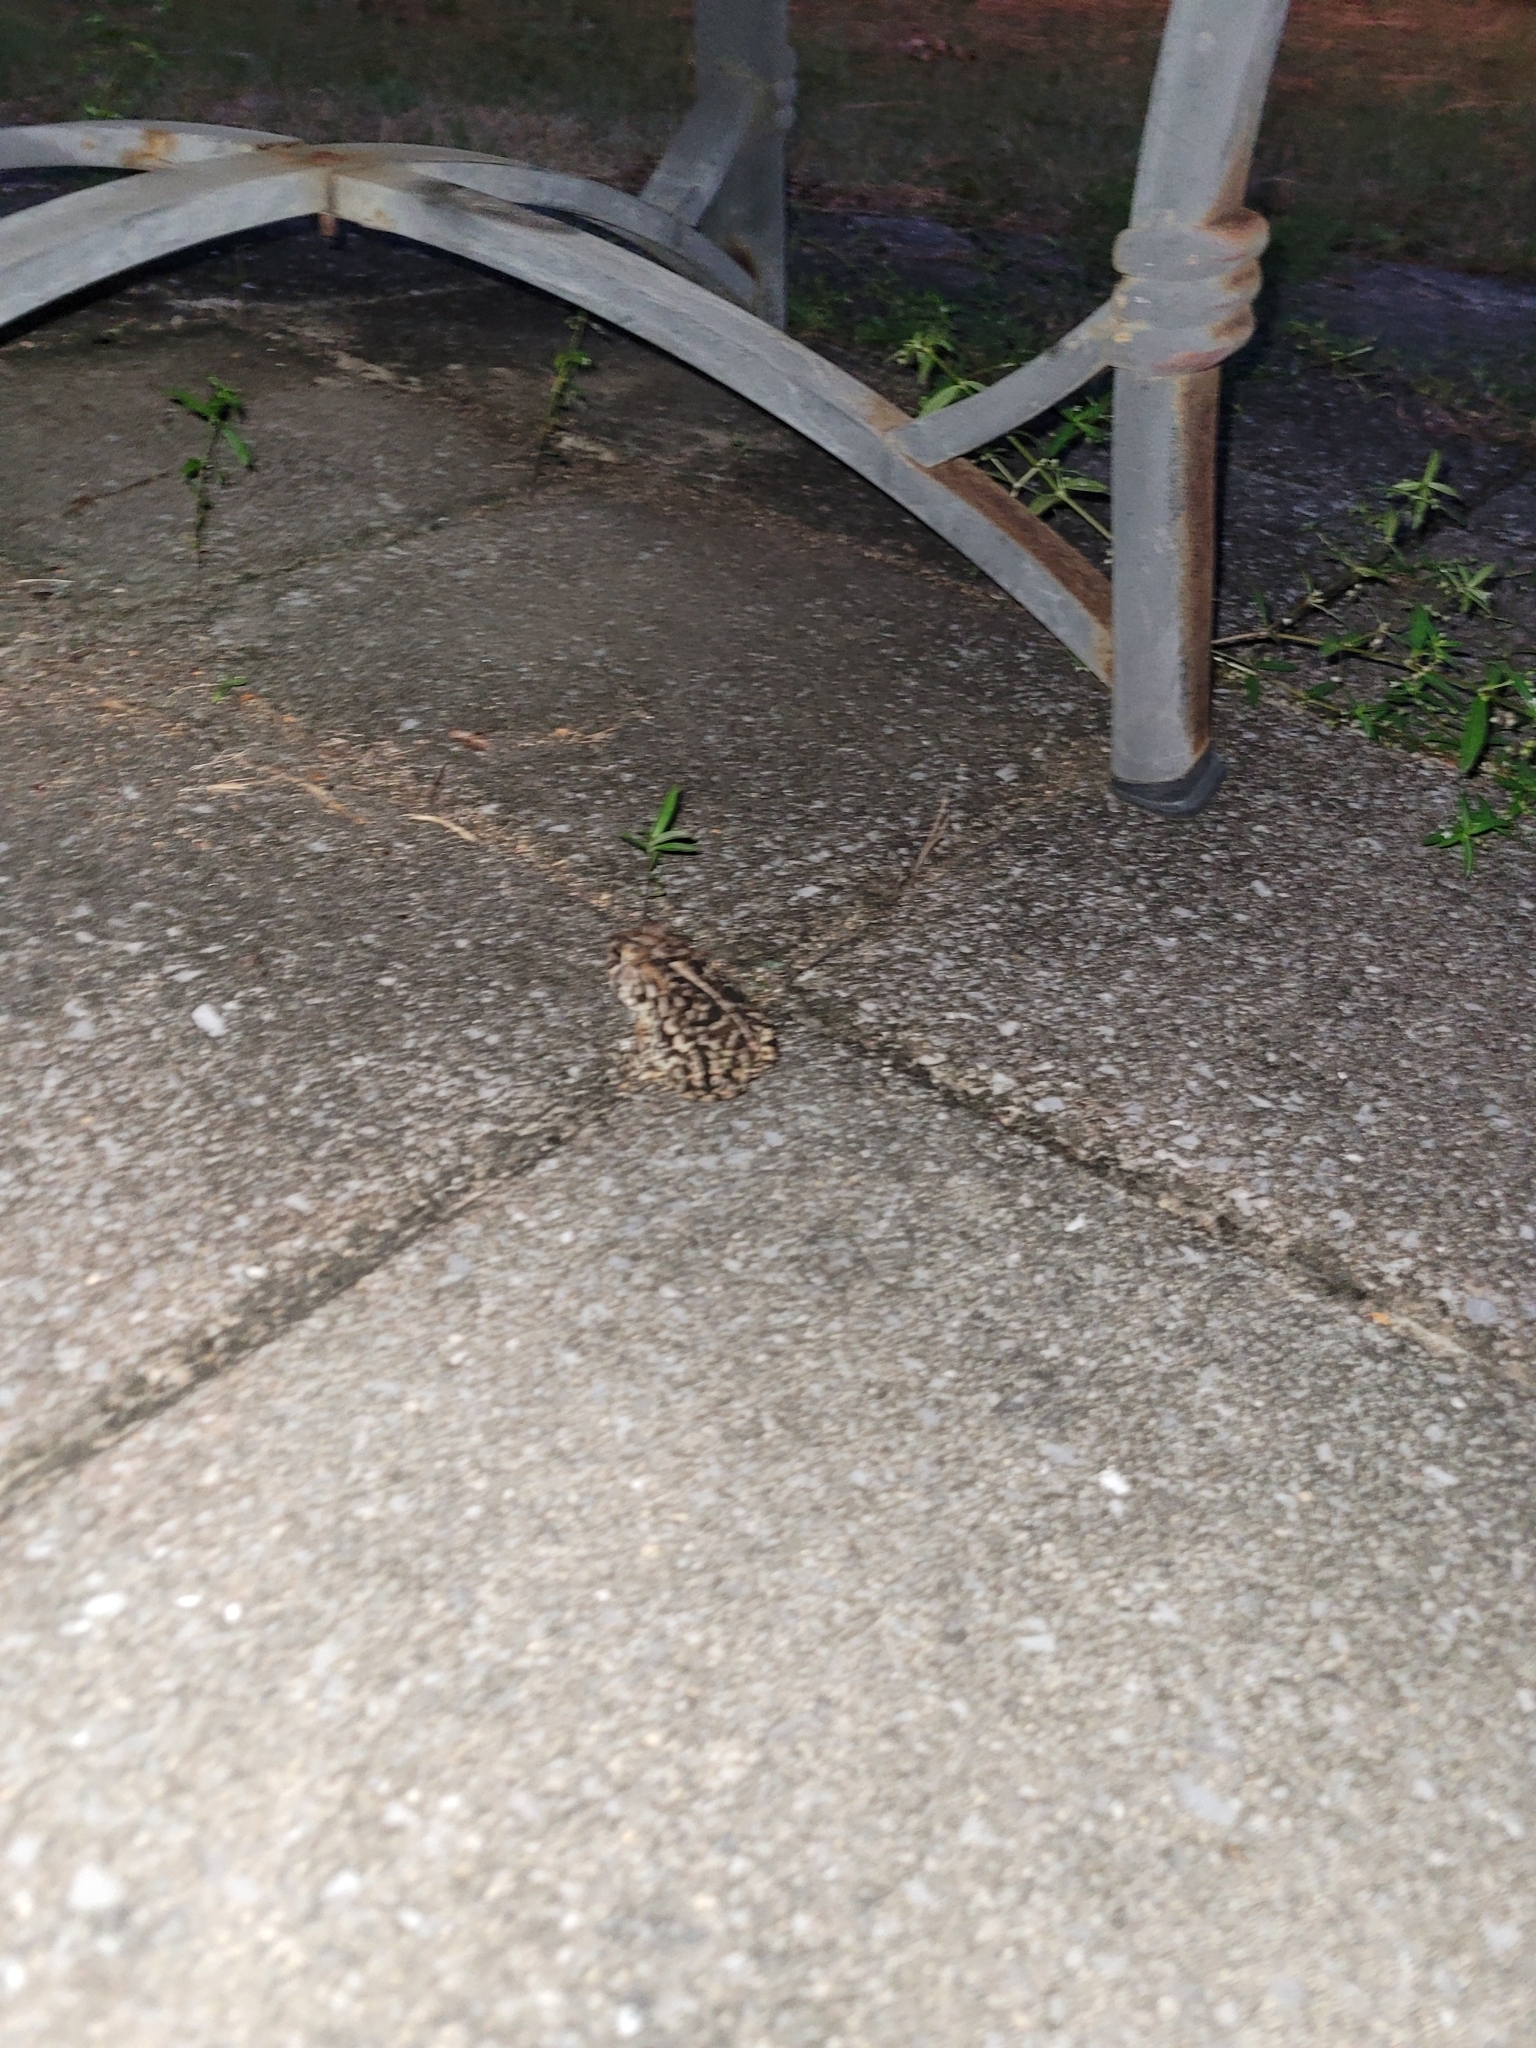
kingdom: Animalia
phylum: Chordata
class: Amphibia
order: Anura
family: Bufonidae
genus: Anaxyrus
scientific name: Anaxyrus terrestris
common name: Southern toad
